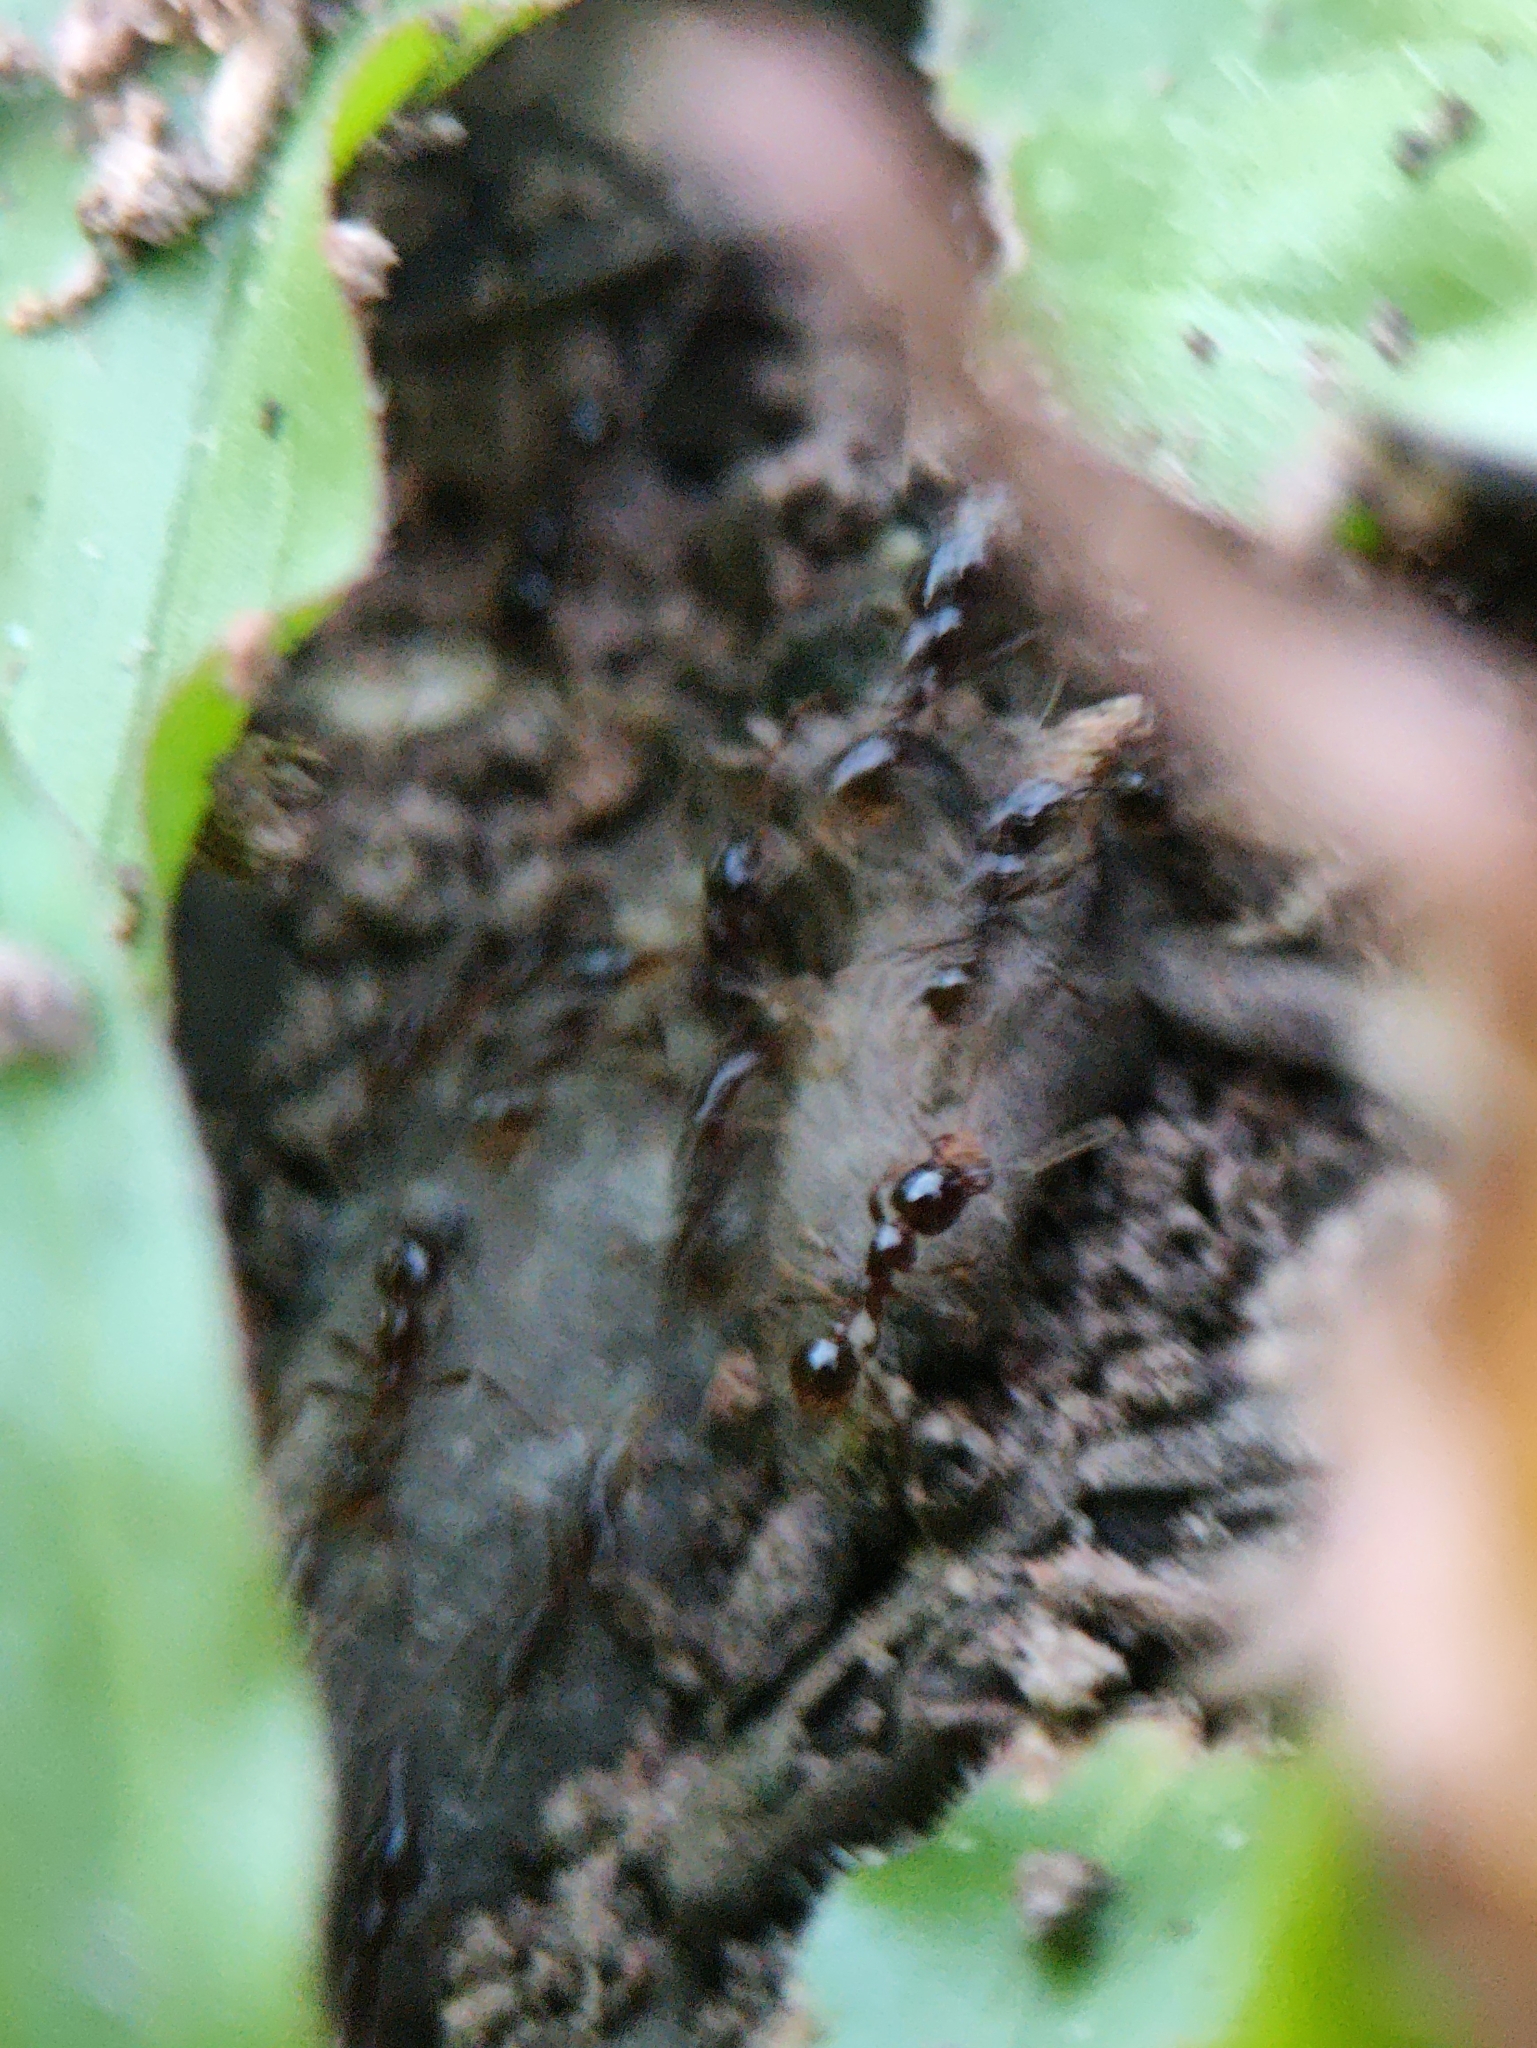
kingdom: Animalia
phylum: Arthropoda
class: Insecta
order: Hymenoptera
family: Formicidae
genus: Pheidologeton
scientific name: Pheidologeton diversus
